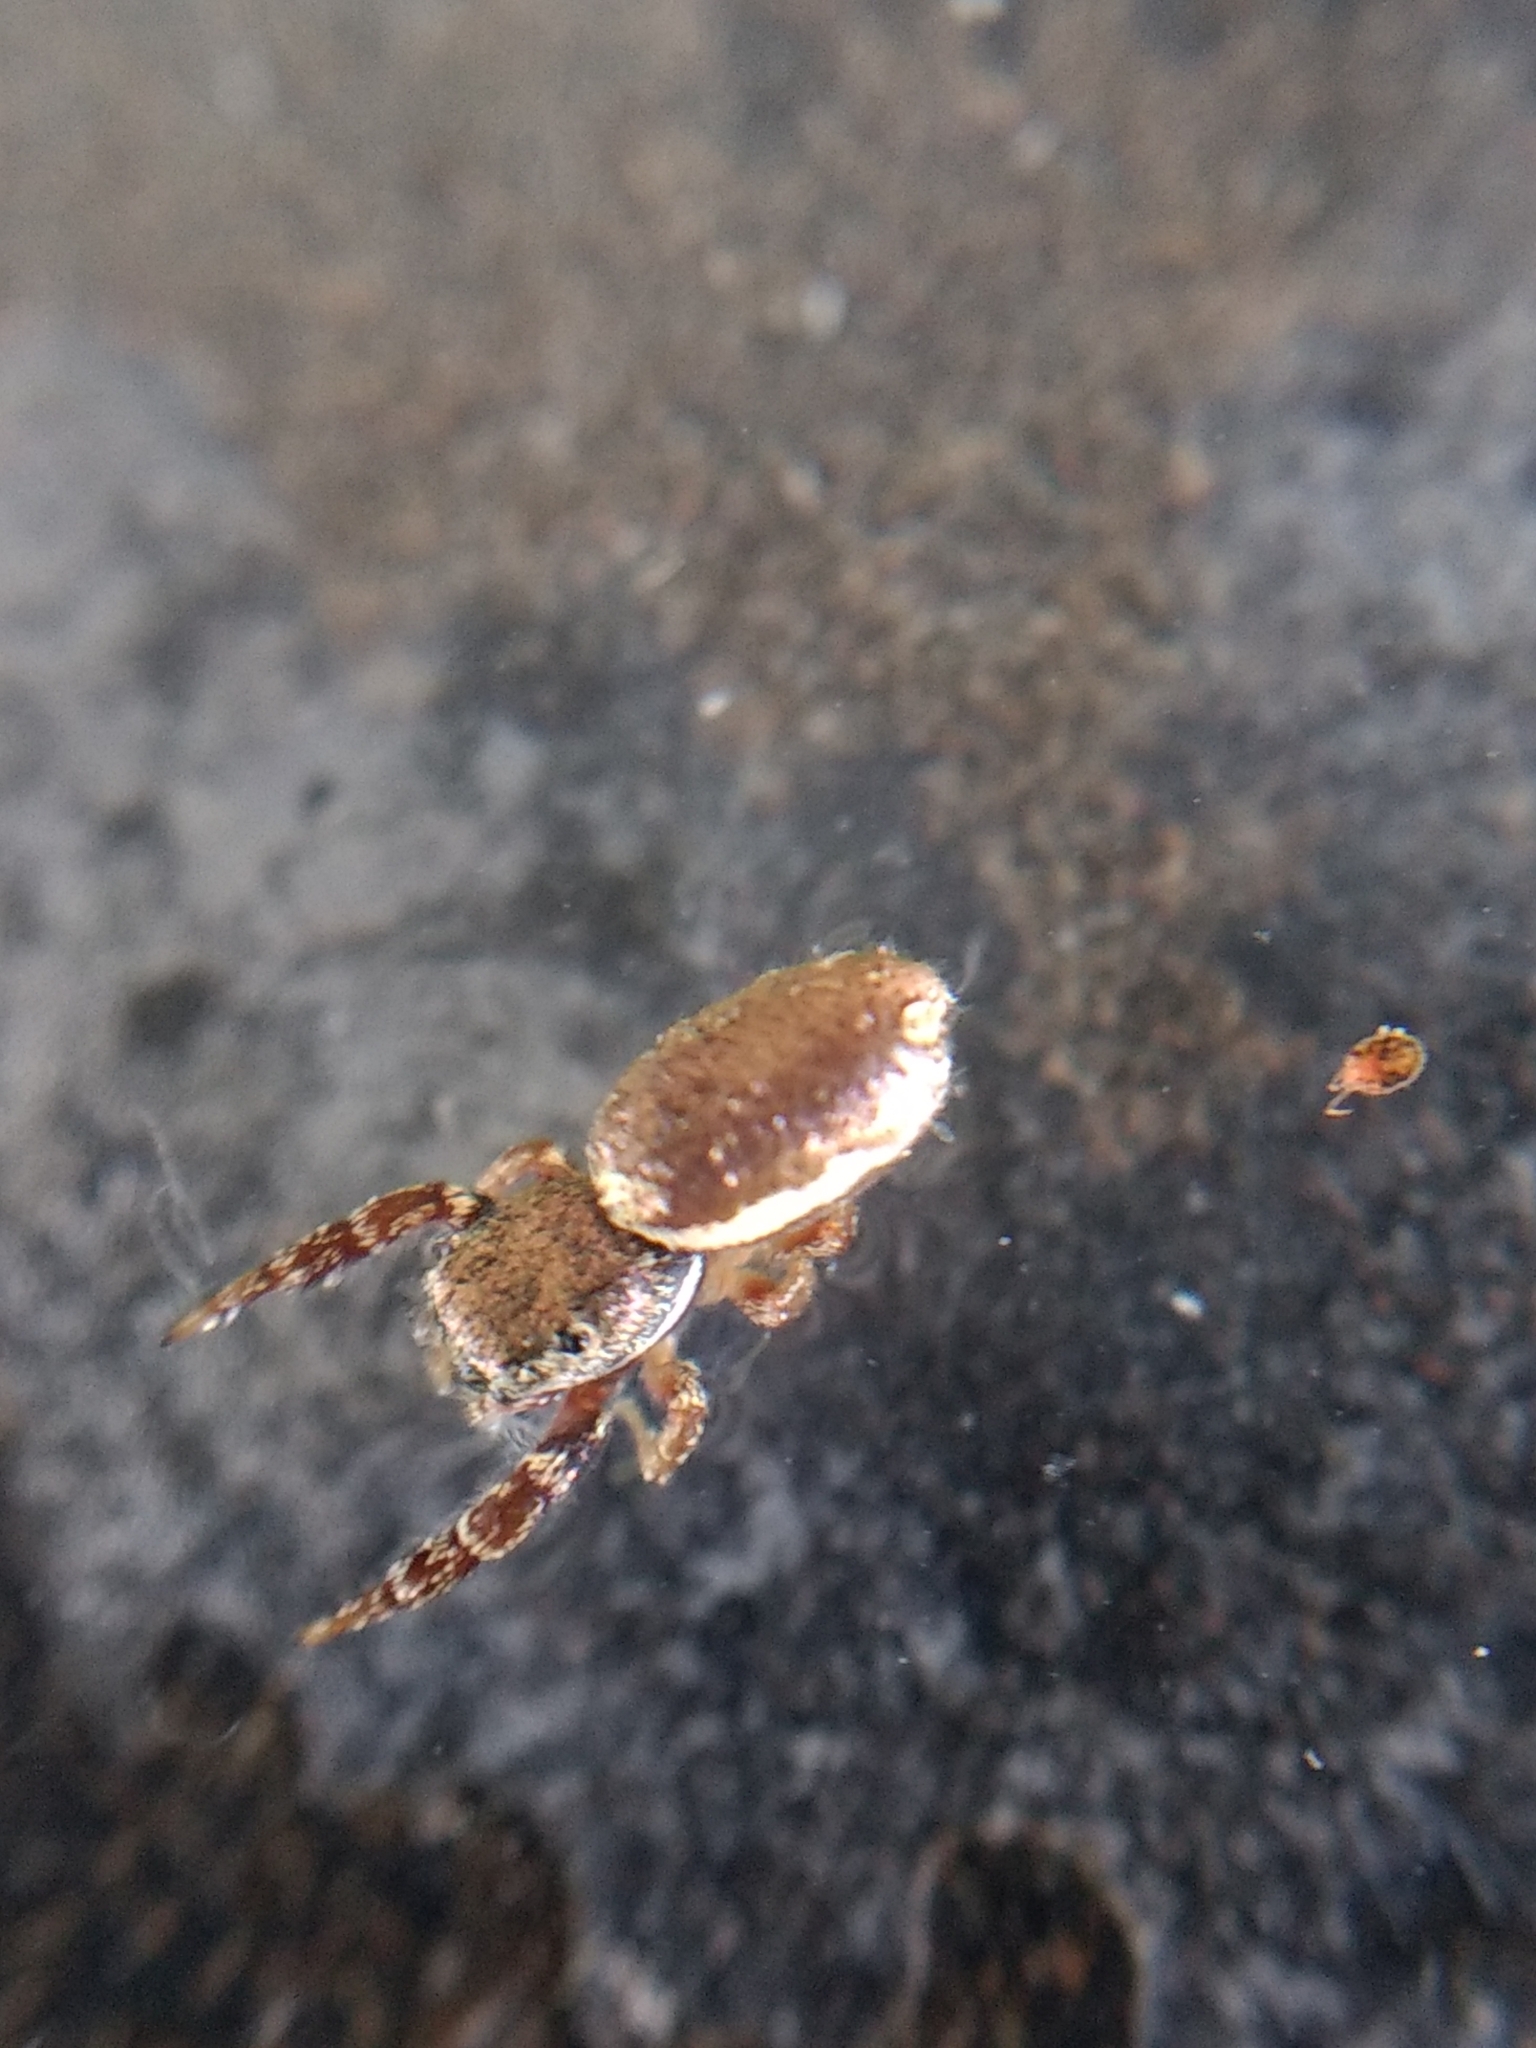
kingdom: Animalia
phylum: Arthropoda
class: Arachnida
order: Araneae
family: Salticidae
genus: Sassacus
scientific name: Sassacus vitis
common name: Jumping spiders
